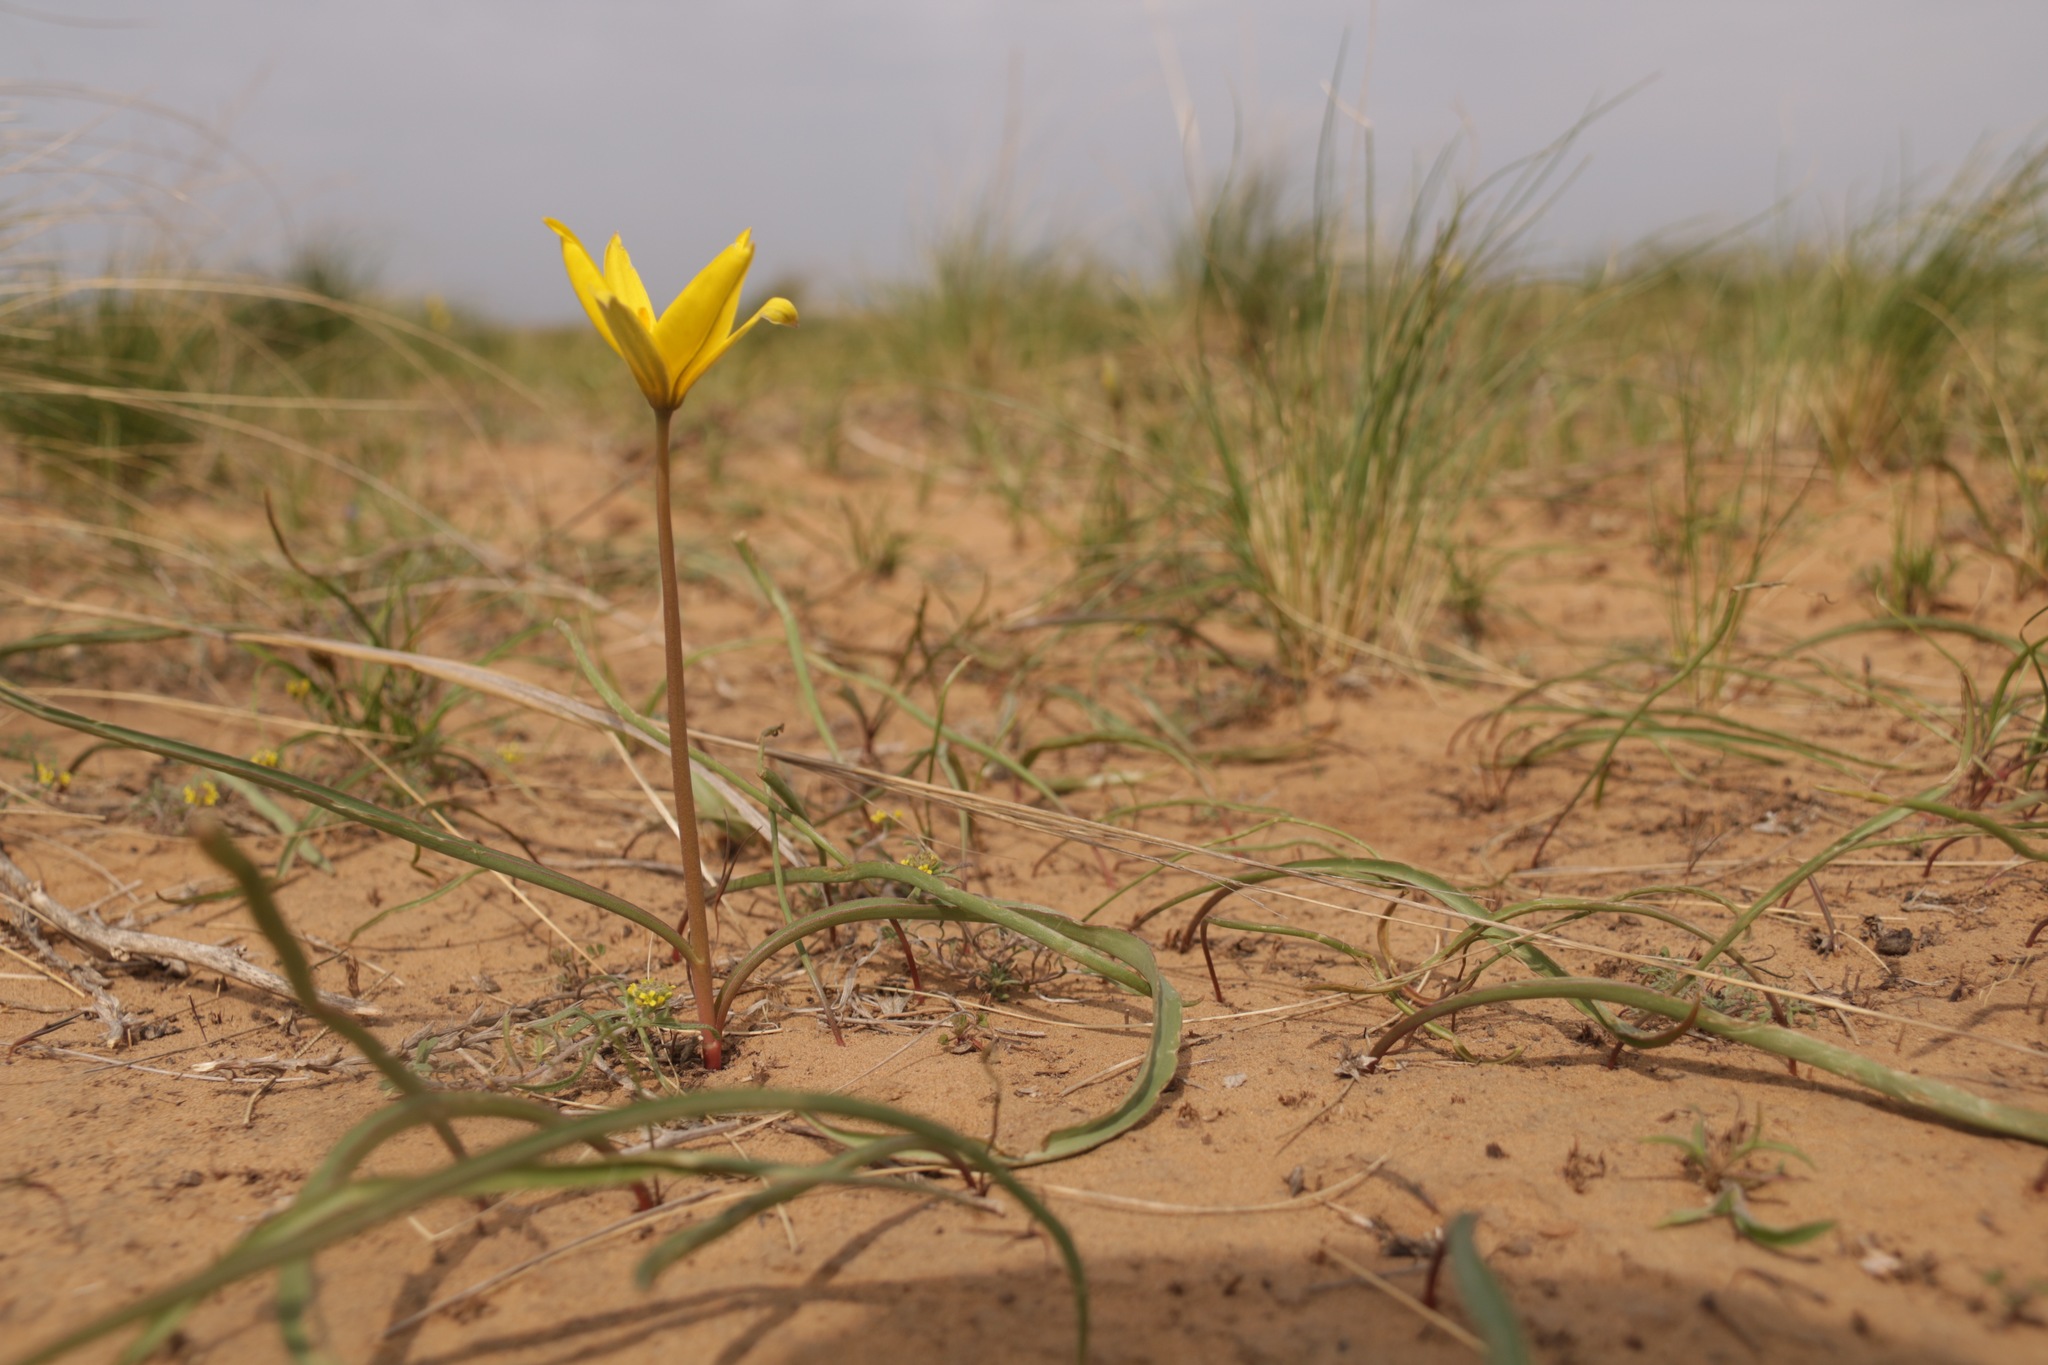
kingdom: Plantae
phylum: Tracheophyta
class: Liliopsida
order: Liliales
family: Liliaceae
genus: Tulipa
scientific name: Tulipa sylvestris
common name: Wild tulip
